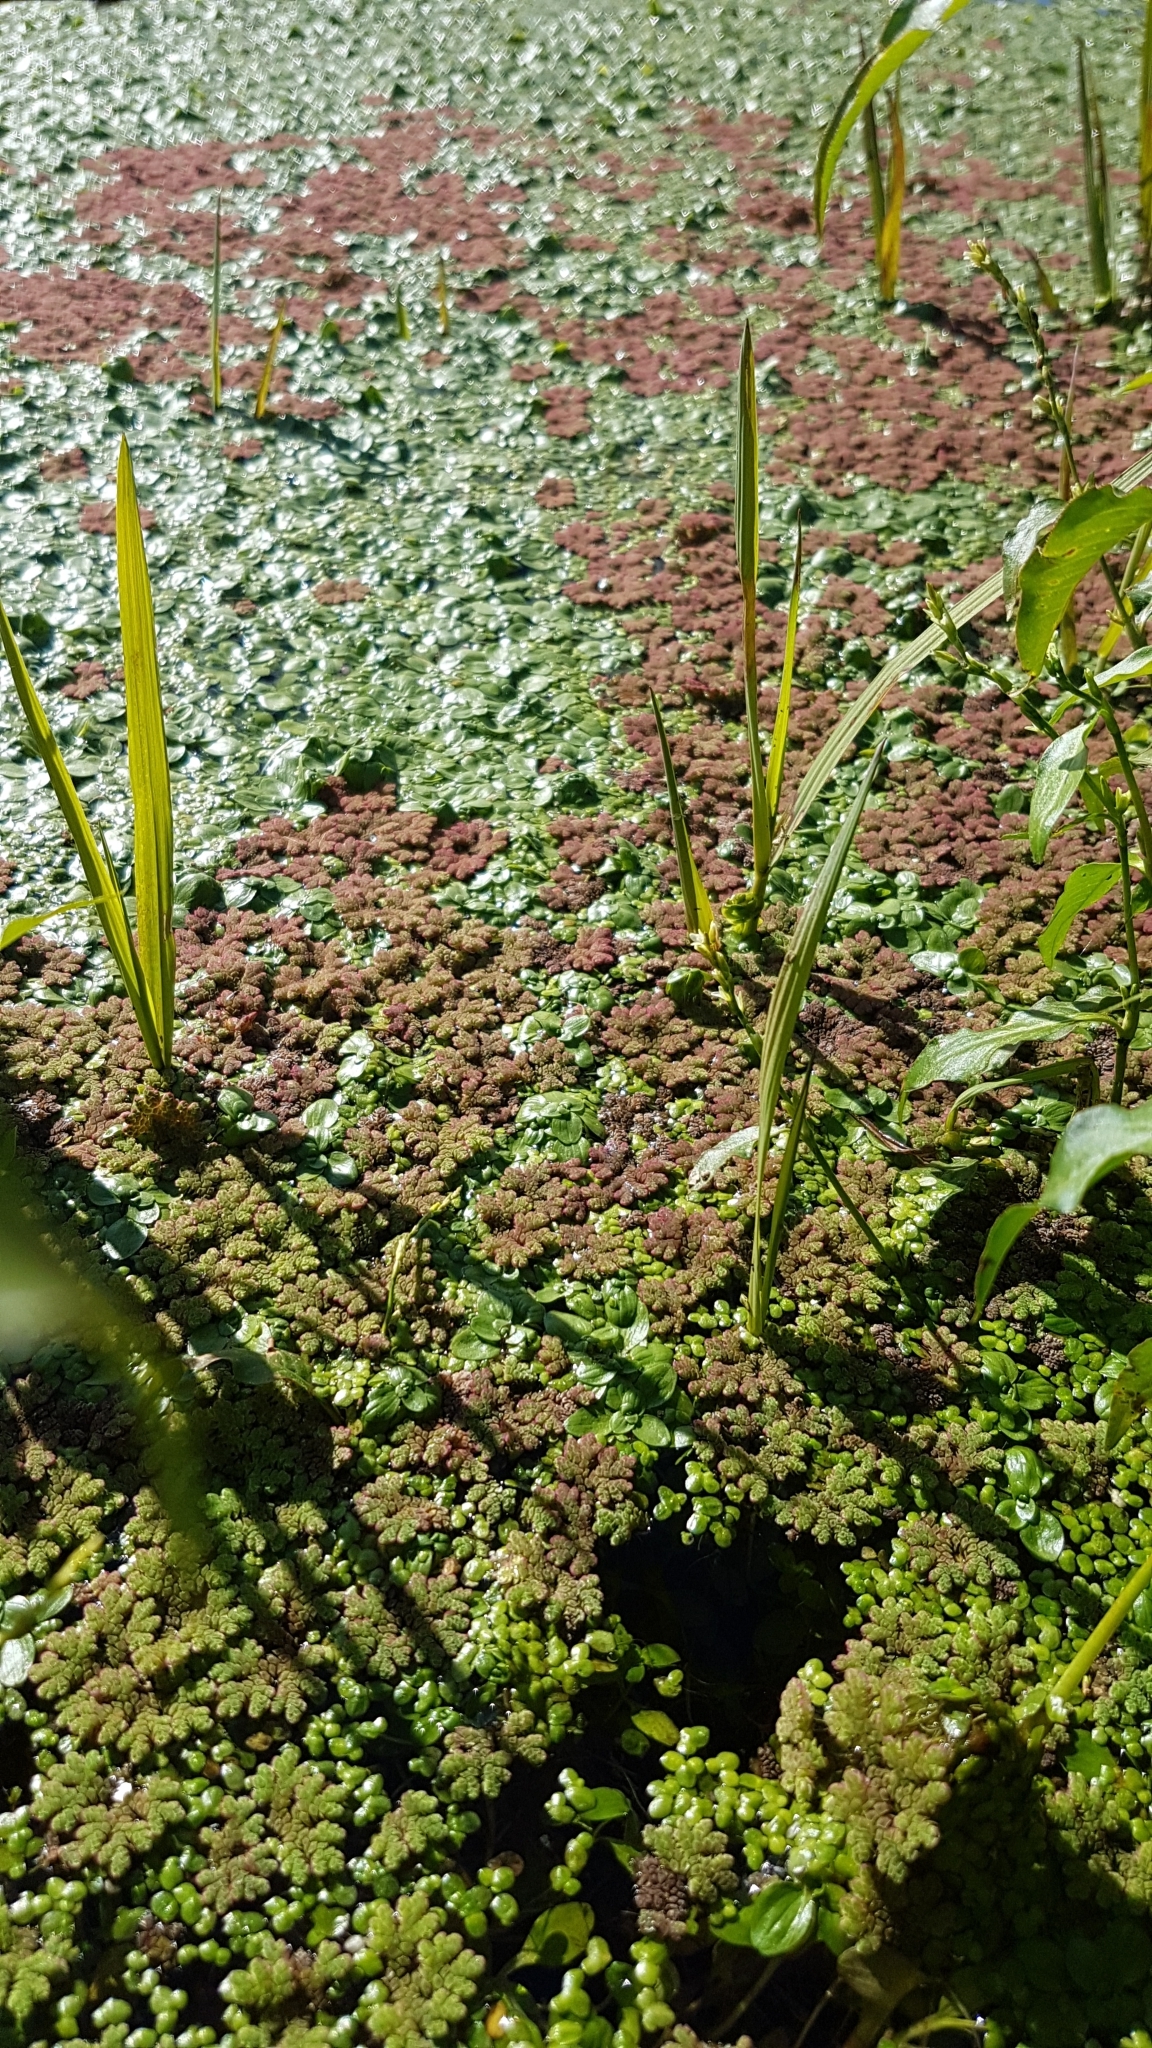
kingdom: Plantae
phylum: Tracheophyta
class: Polypodiopsida
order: Salviniales
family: Salviniaceae
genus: Azolla
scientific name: Azolla rubra
